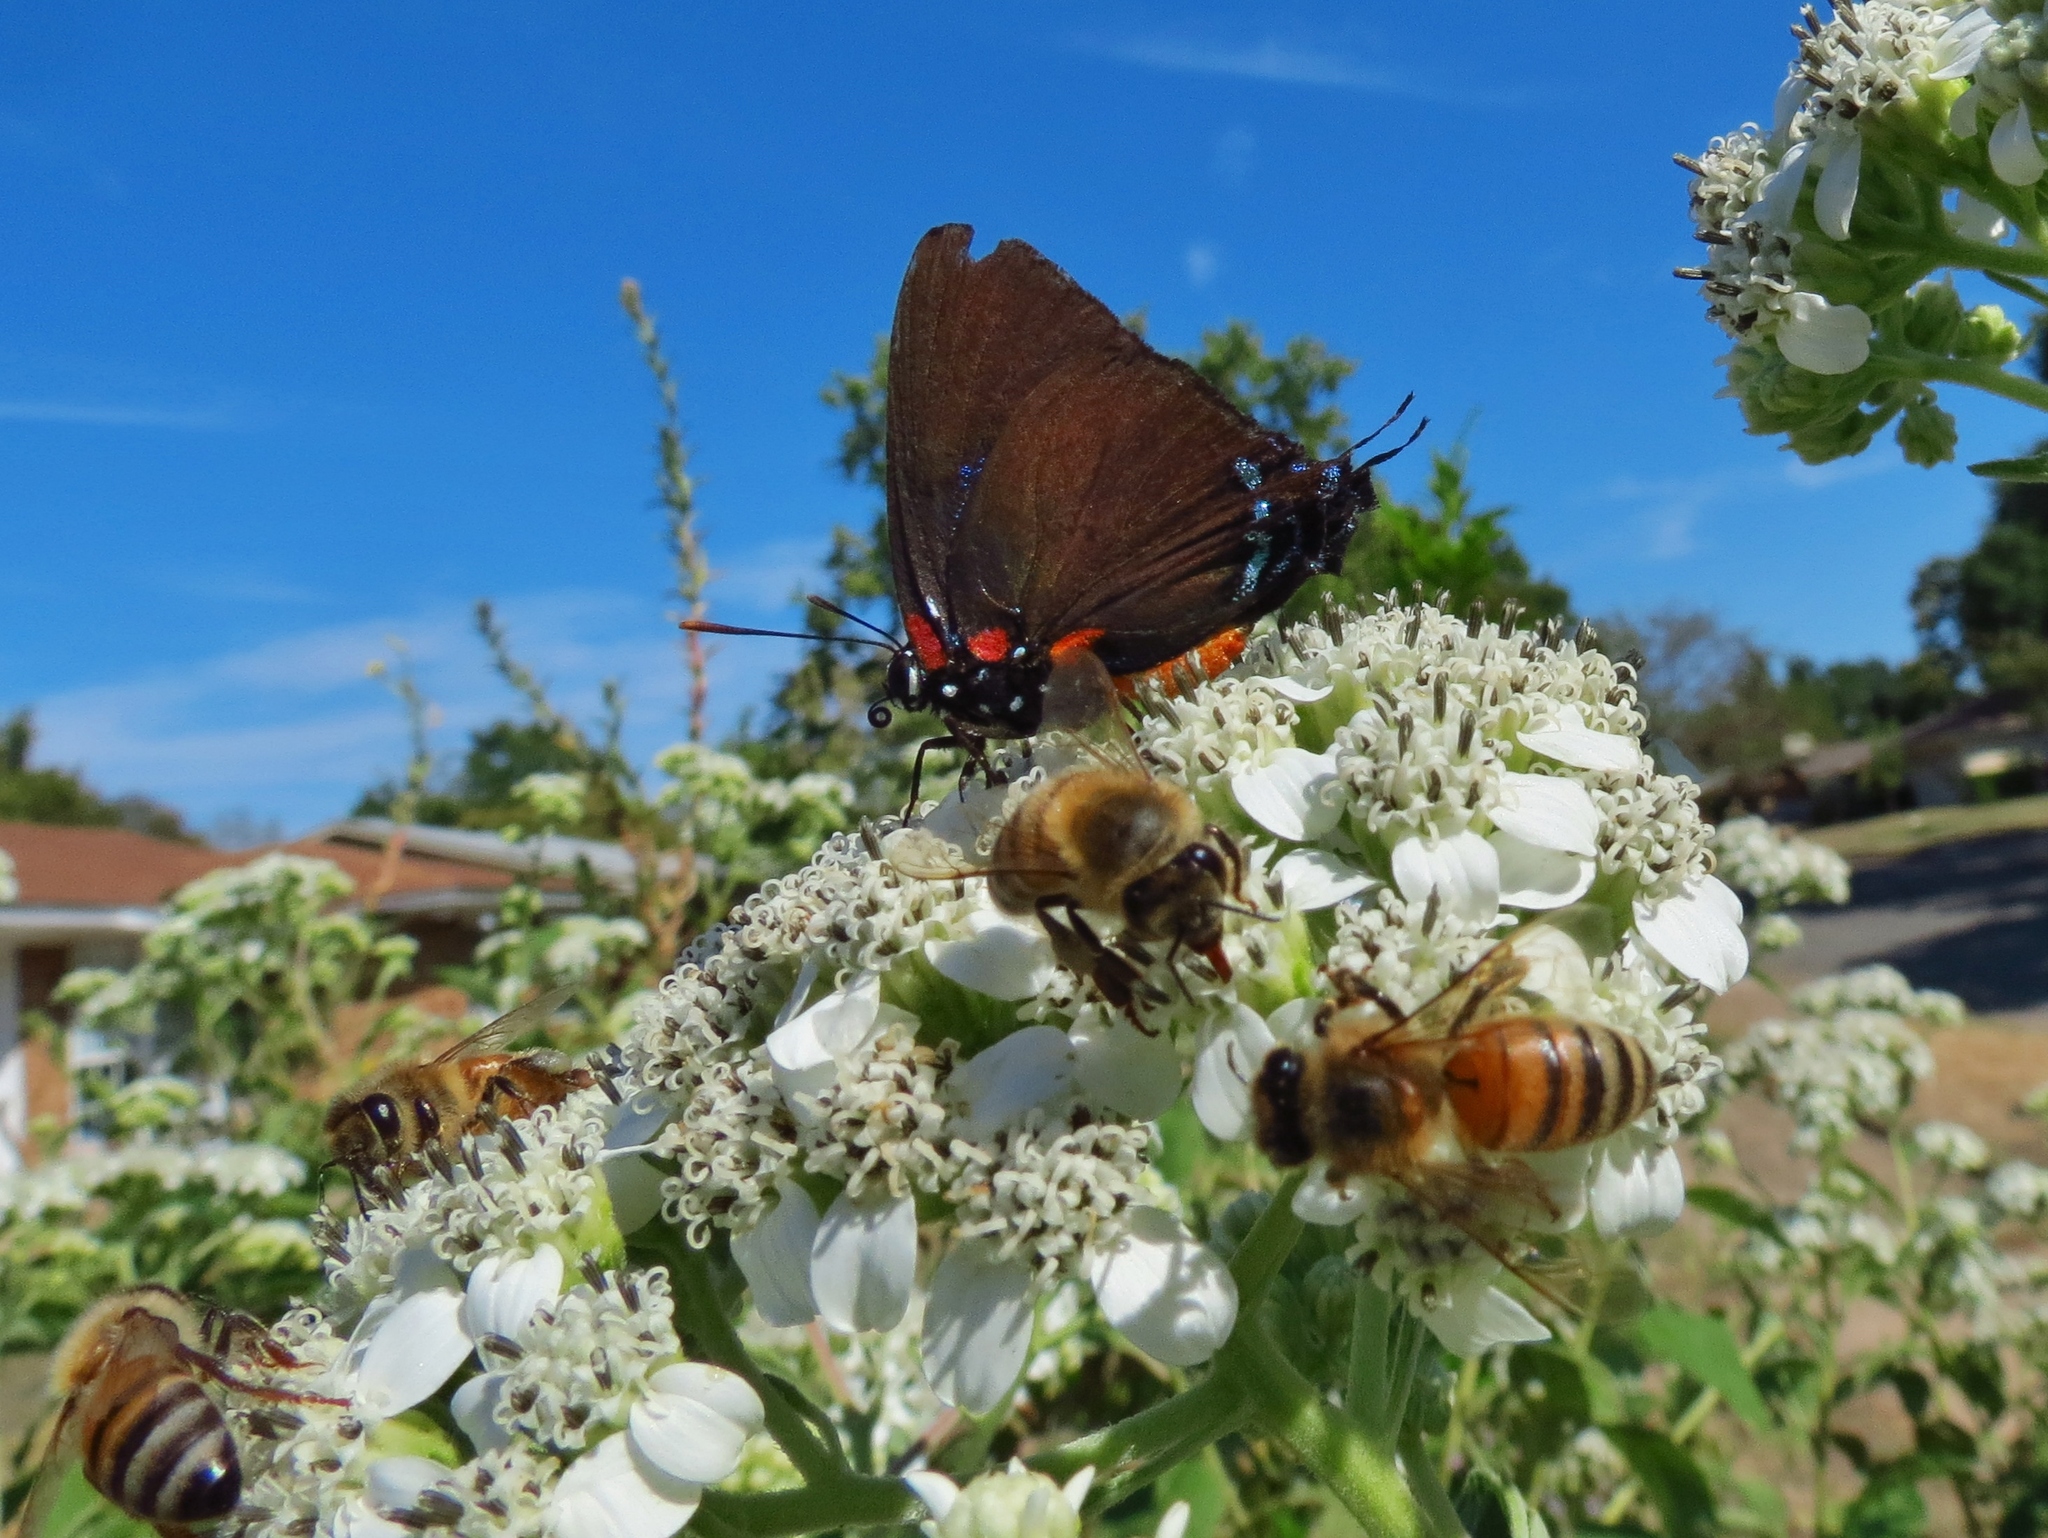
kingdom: Animalia
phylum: Arthropoda
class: Insecta
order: Hymenoptera
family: Apidae
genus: Apis
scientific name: Apis mellifera
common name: Honey bee
